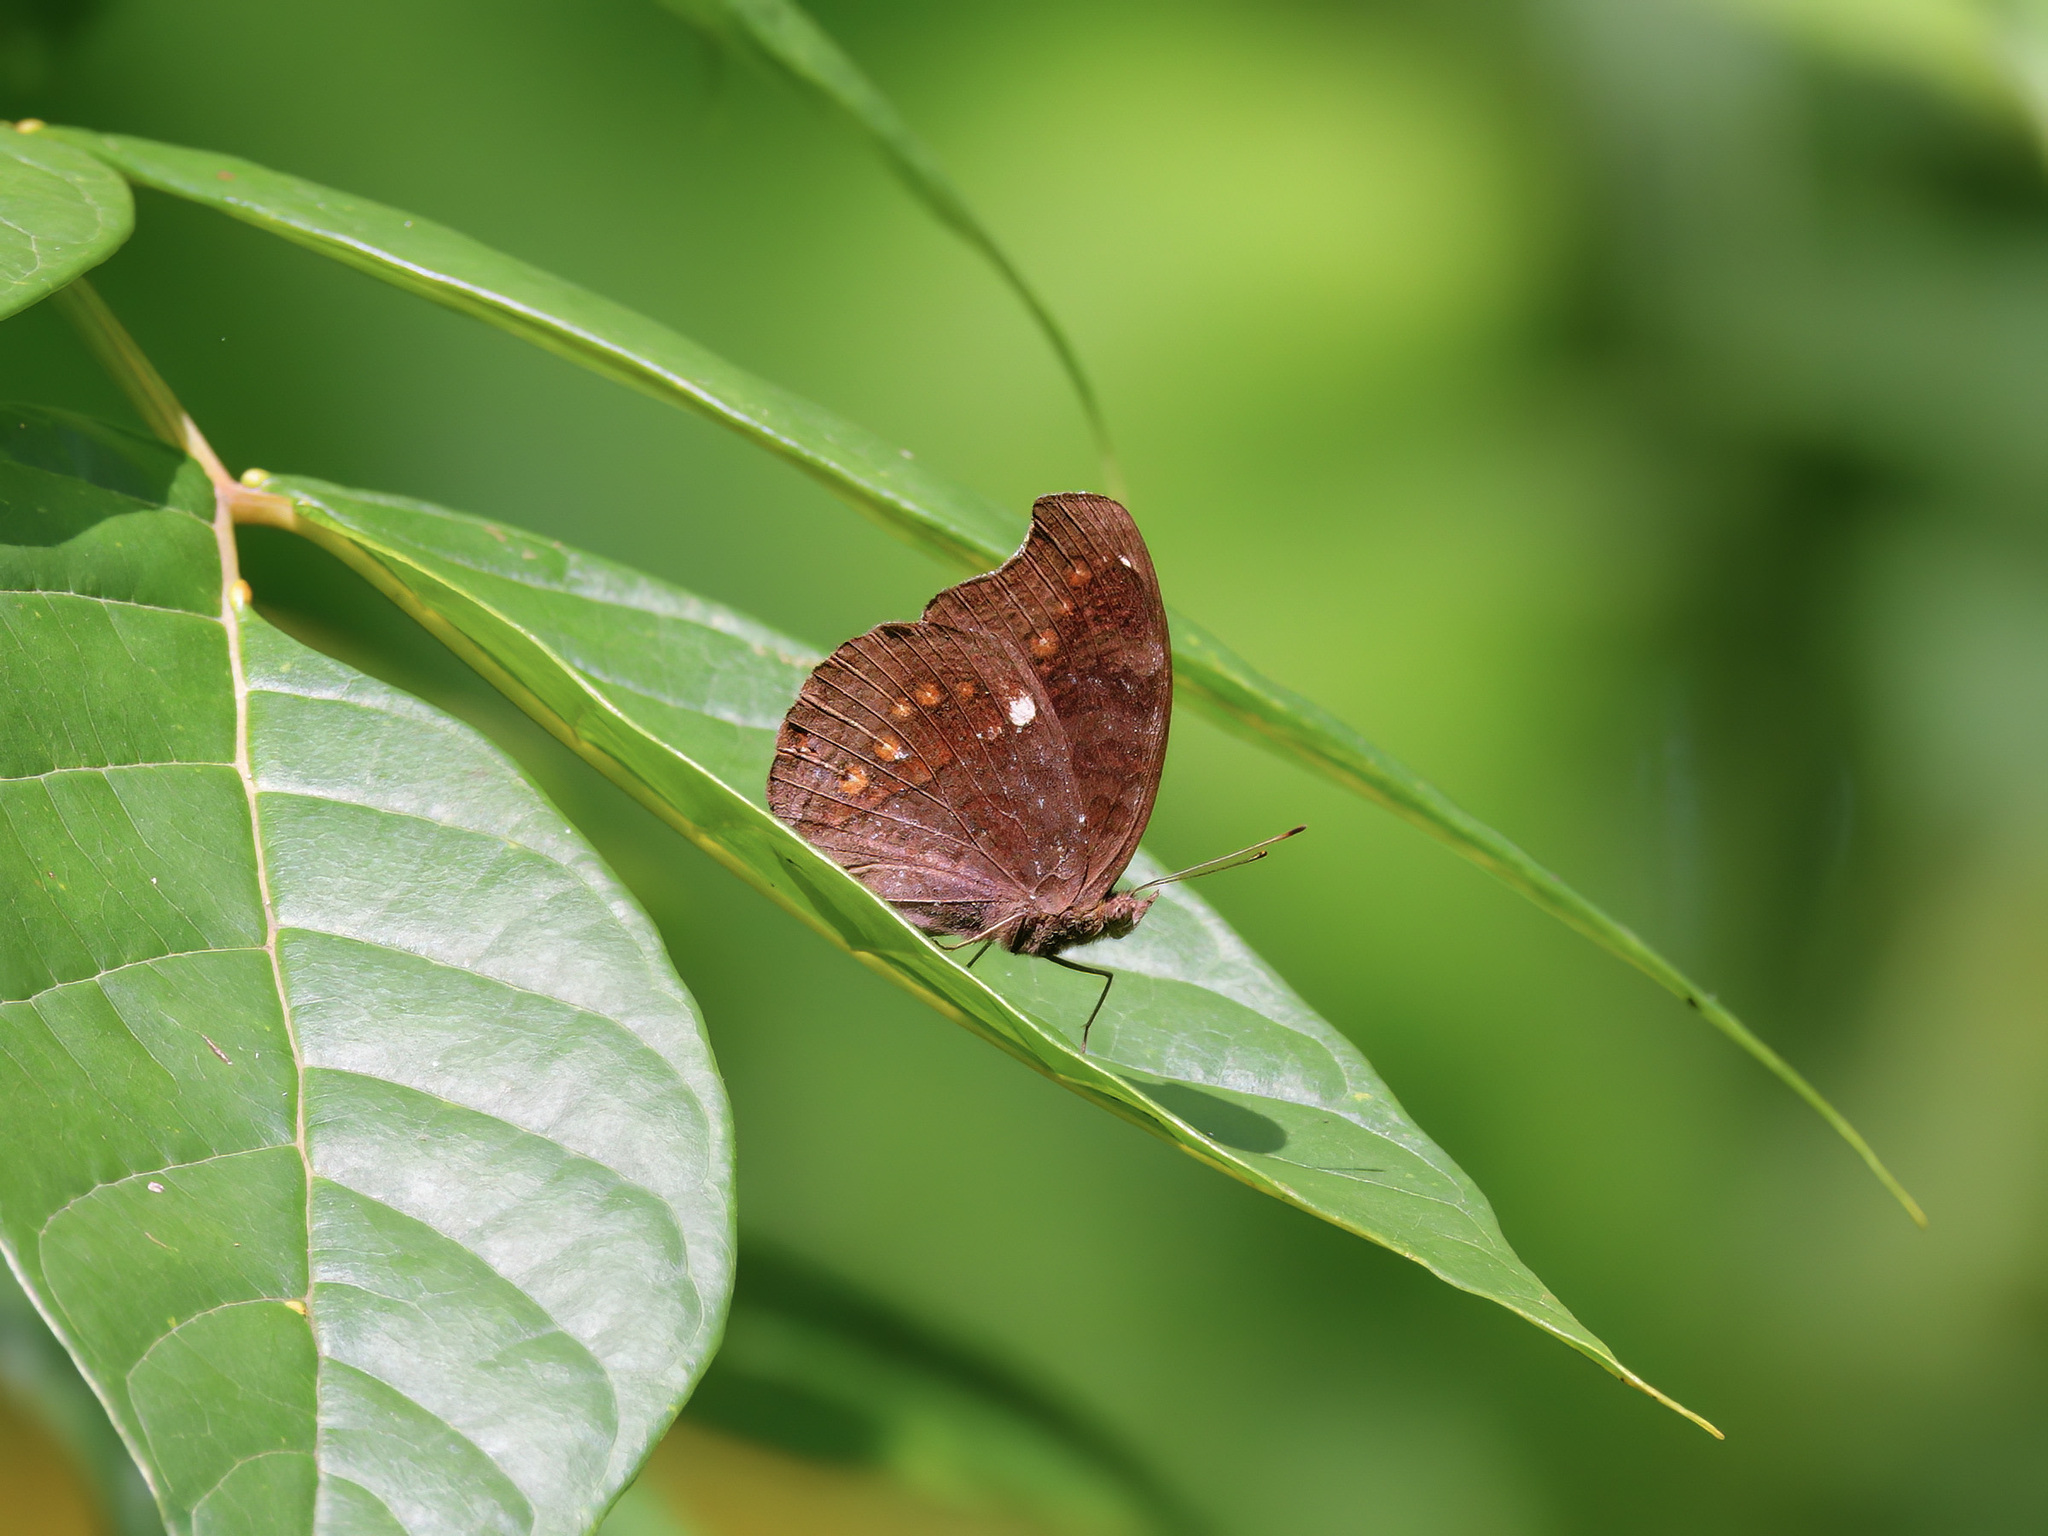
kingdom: Animalia
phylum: Arthropoda
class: Insecta
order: Lepidoptera
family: Nymphalidae
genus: Junonia
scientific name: Junonia hedonia
